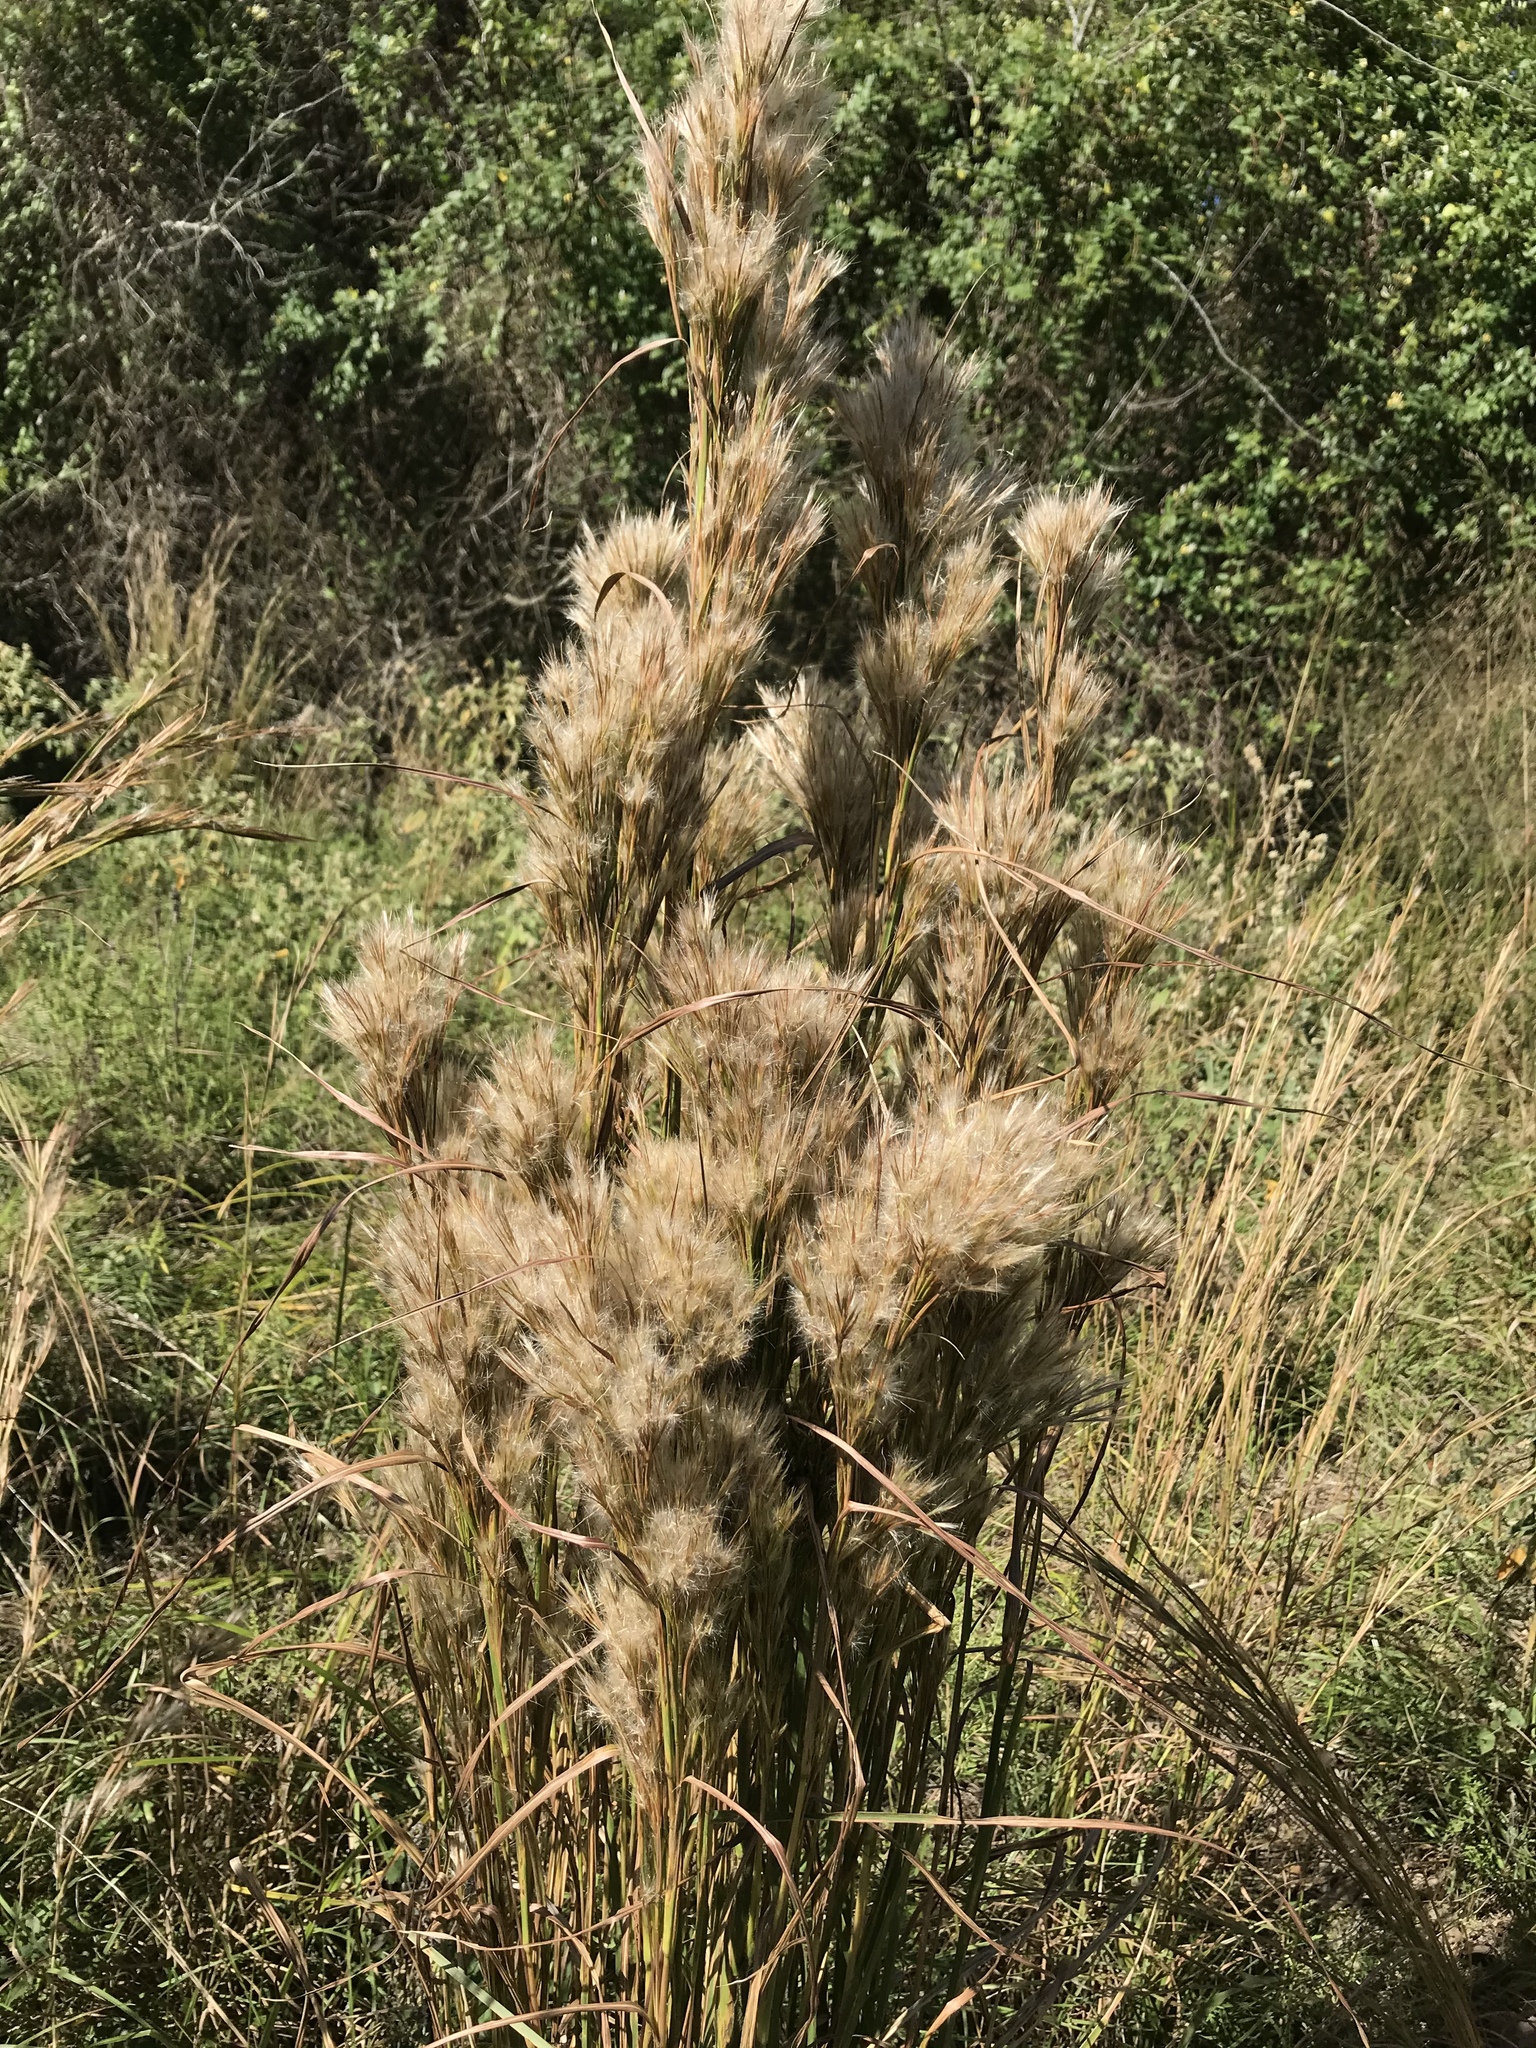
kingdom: Plantae
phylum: Tracheophyta
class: Liliopsida
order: Poales
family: Poaceae
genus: Andropogon
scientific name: Andropogon tenuispatheus
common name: Bushy bluestem
